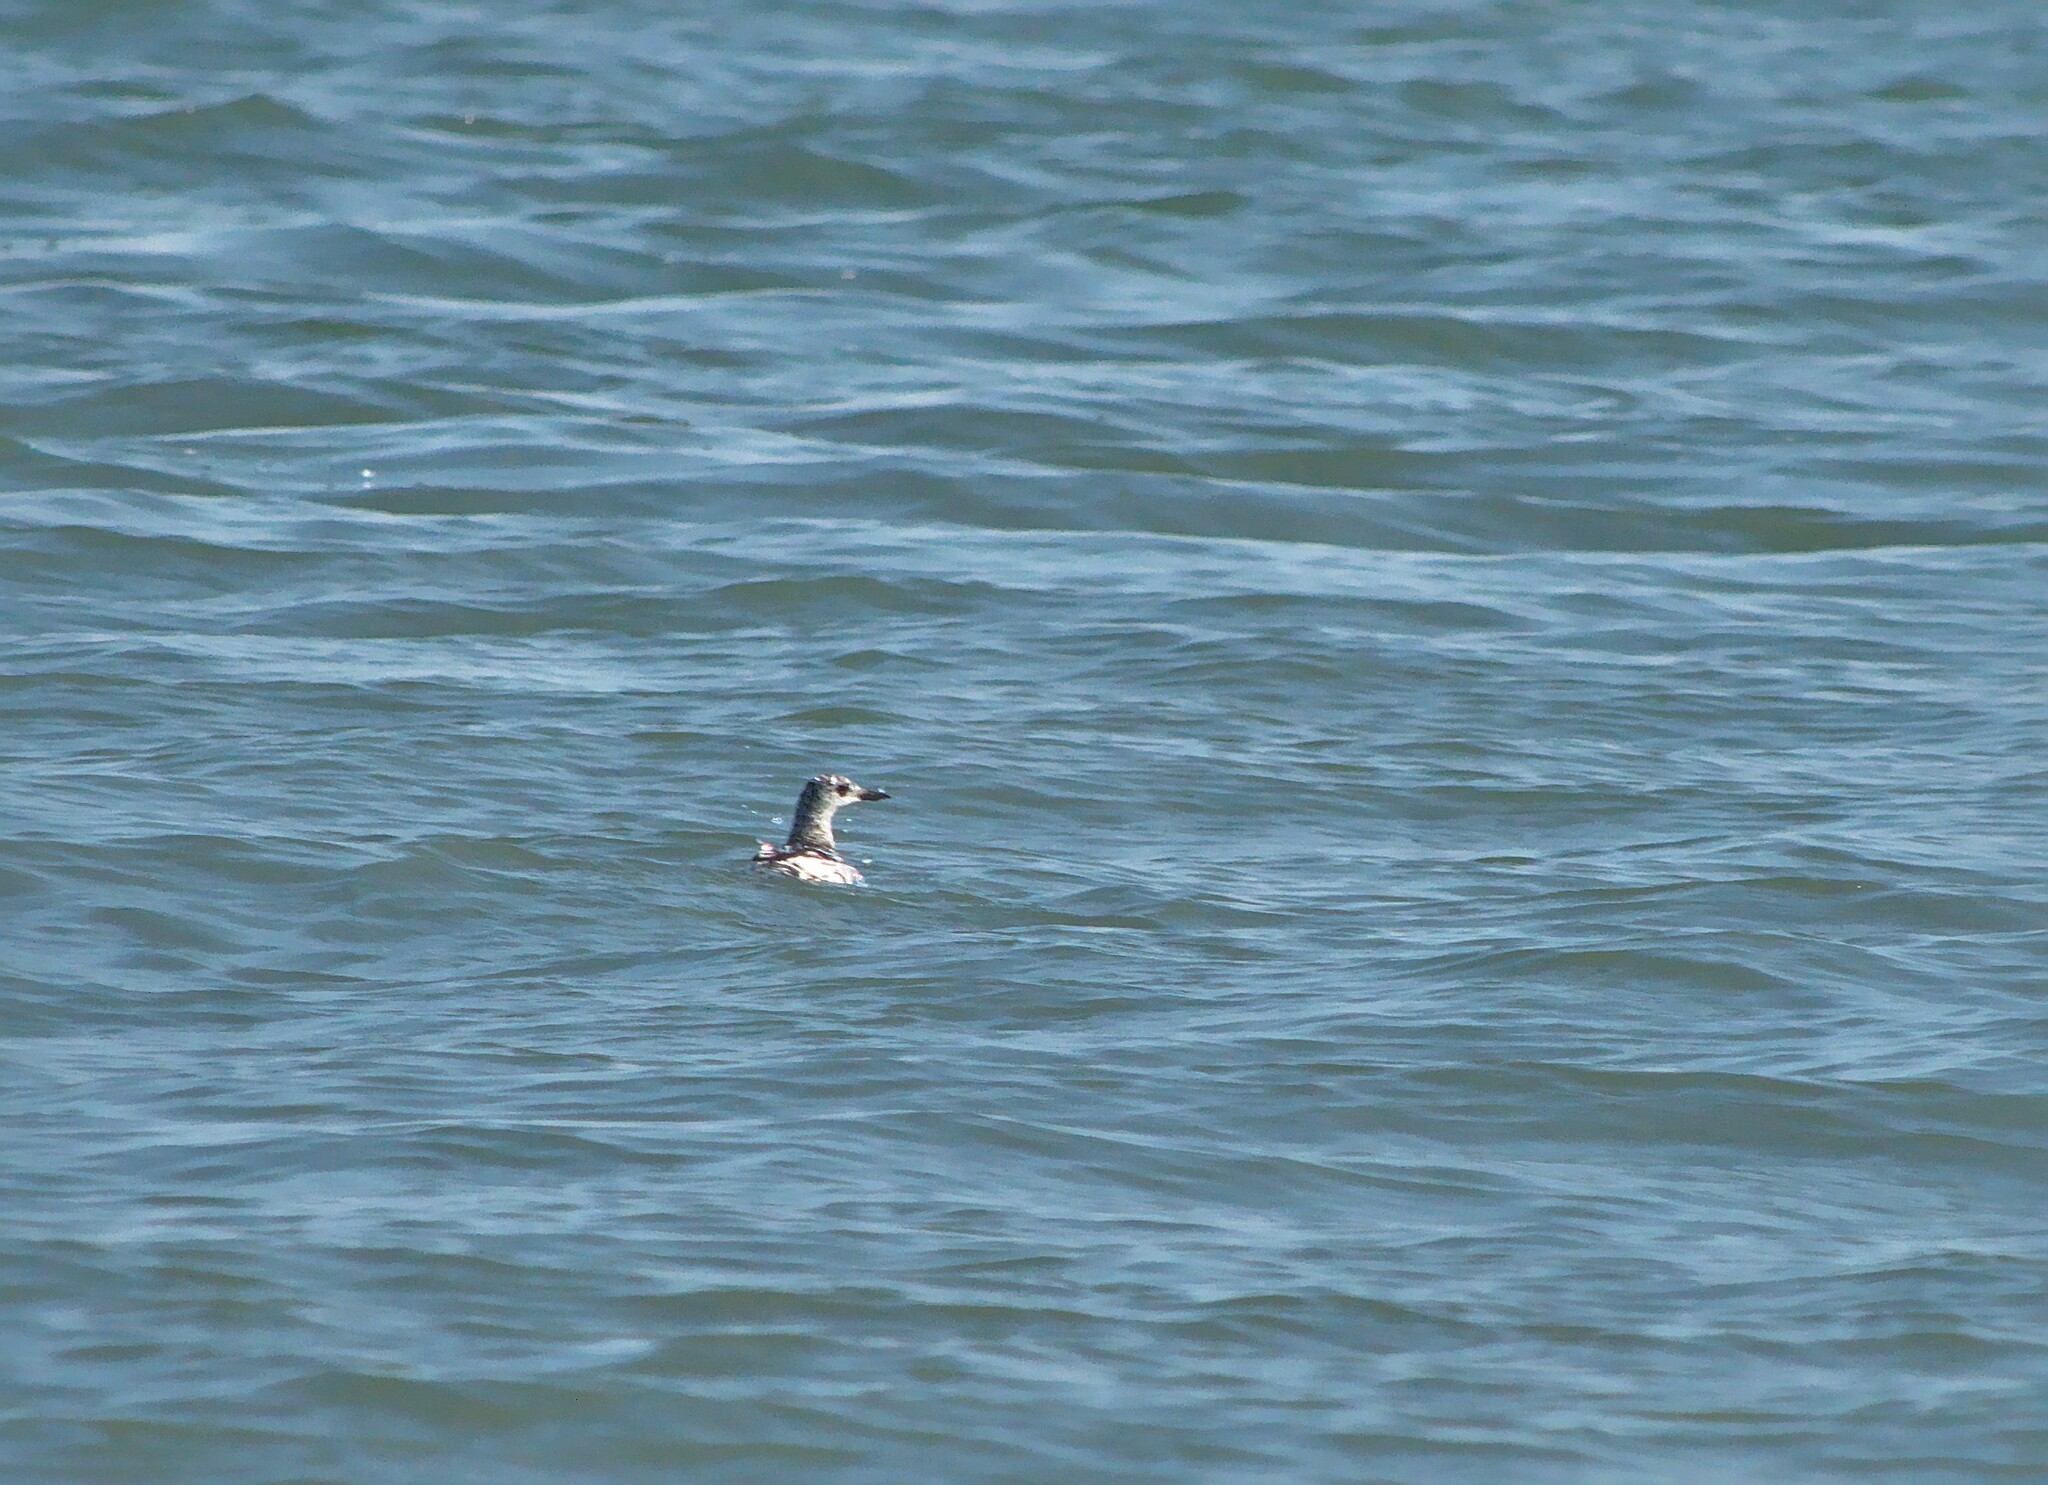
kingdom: Animalia
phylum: Chordata
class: Aves
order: Charadriiformes
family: Alcidae
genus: Cepphus
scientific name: Cepphus grylle
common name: Black guillemot
